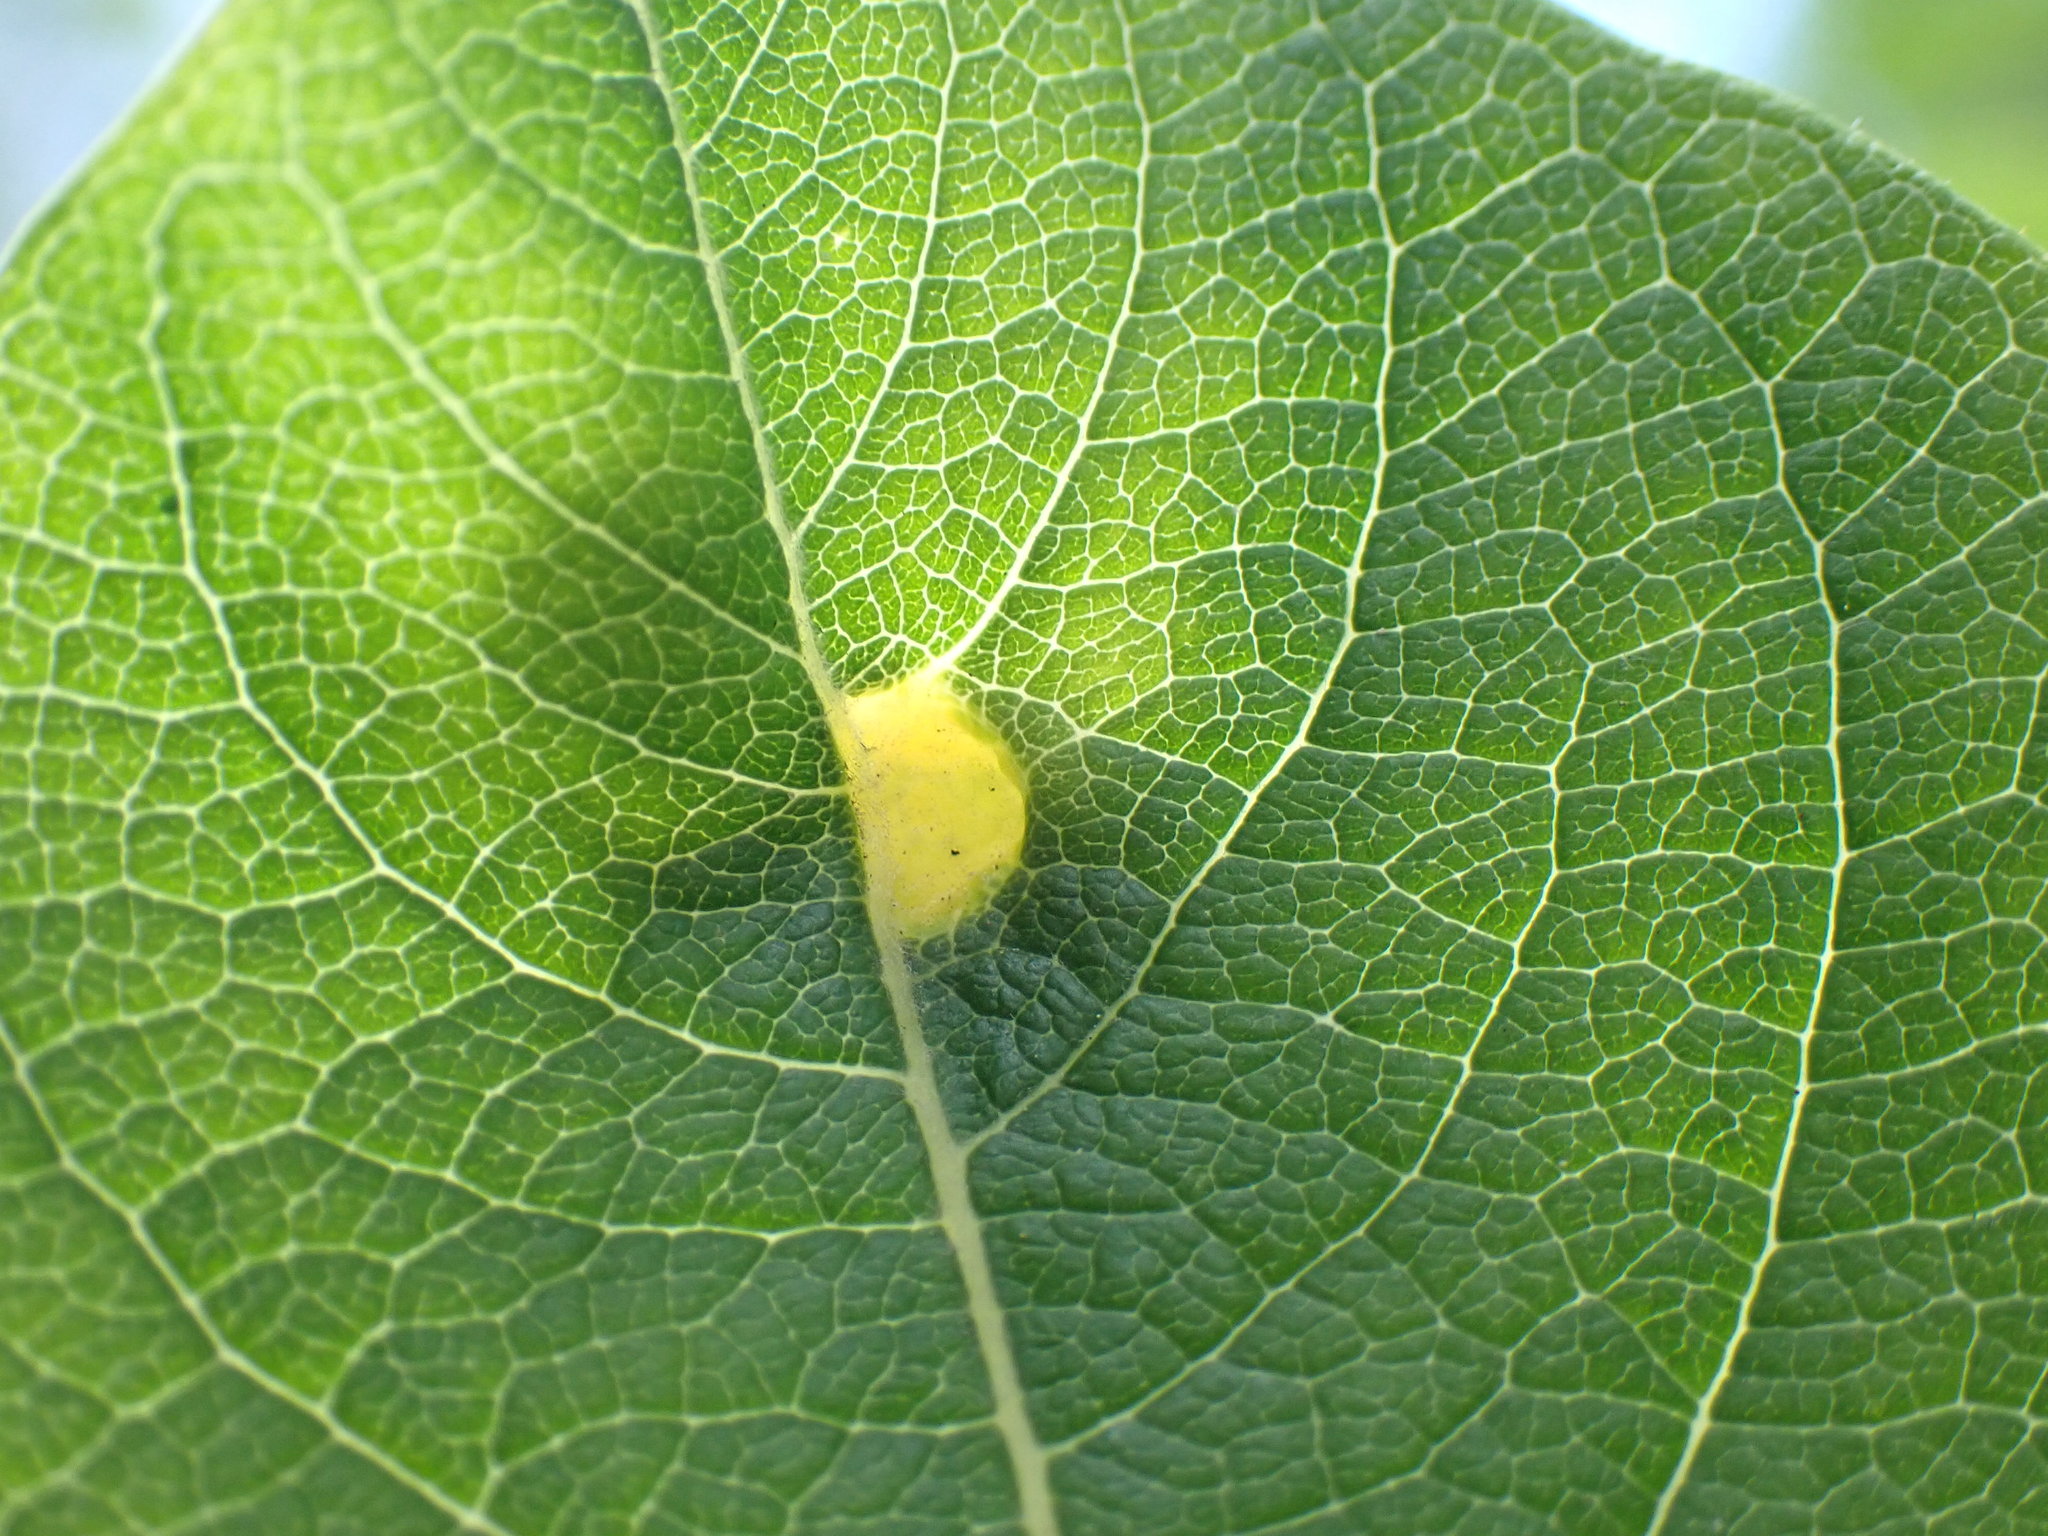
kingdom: Animalia
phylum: Arthropoda
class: Insecta
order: Hymenoptera
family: Tenthredinidae
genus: Pontania
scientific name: Pontania pedunculi
